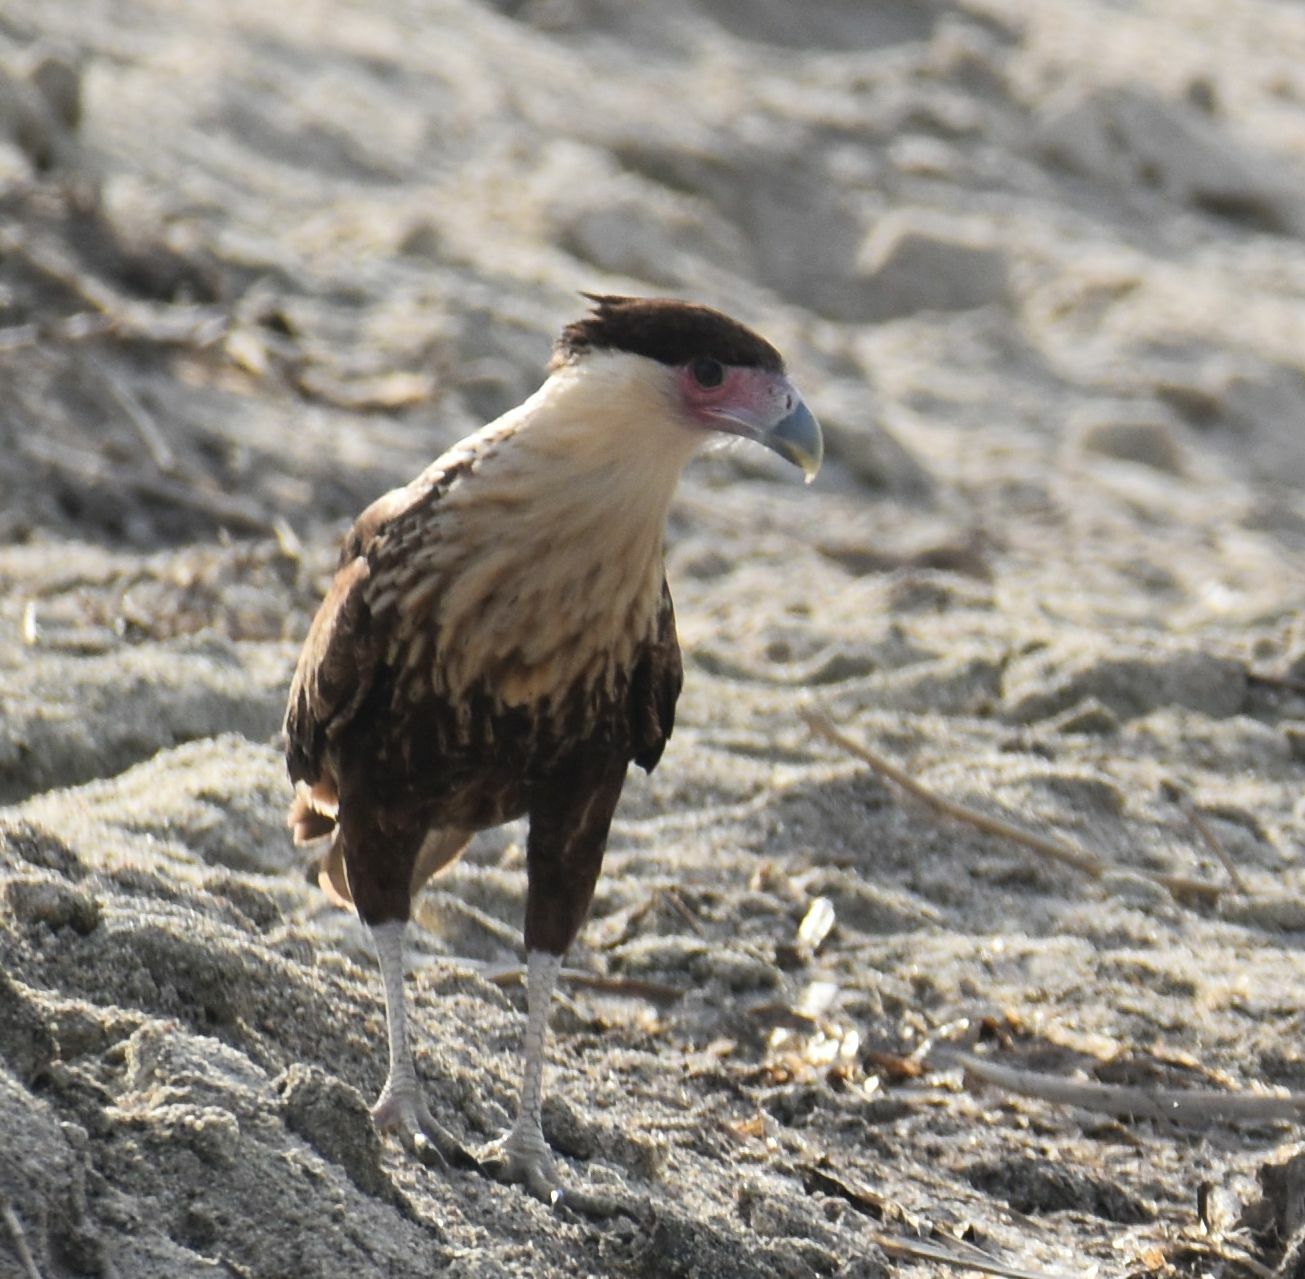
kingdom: Animalia
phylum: Chordata
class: Aves
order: Falconiformes
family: Falconidae
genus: Caracara
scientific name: Caracara plancus
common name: Southern caracara
